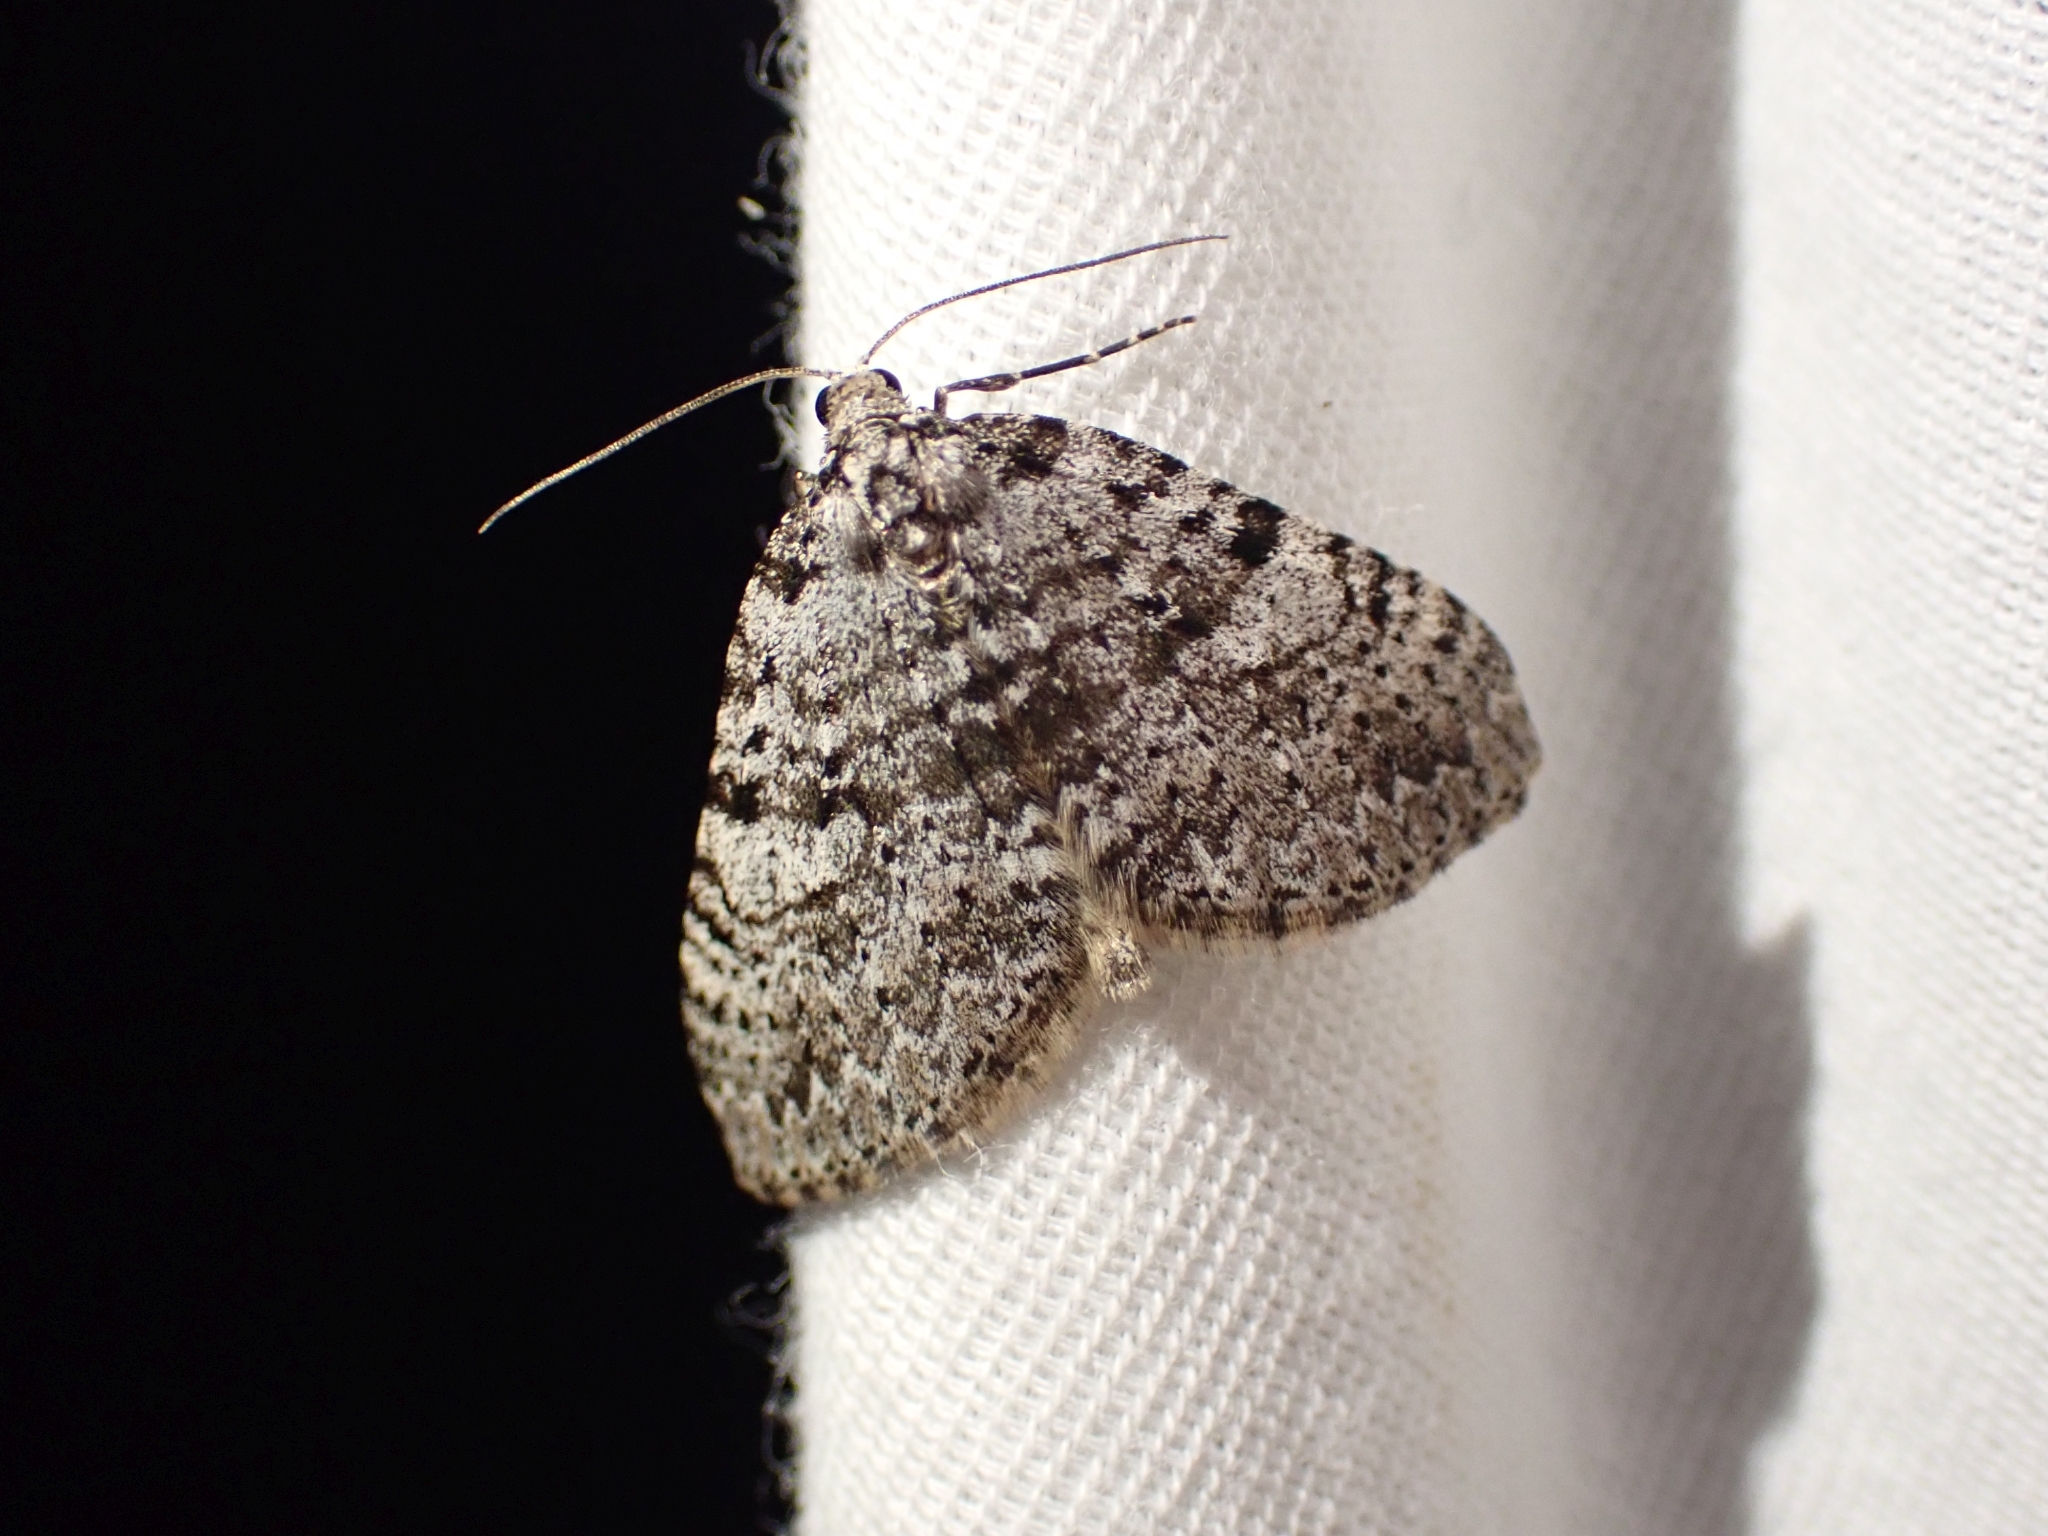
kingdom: Animalia
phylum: Arthropoda
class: Insecta
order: Lepidoptera
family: Geometridae
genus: Perizoma
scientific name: Perizoma curvilinea
